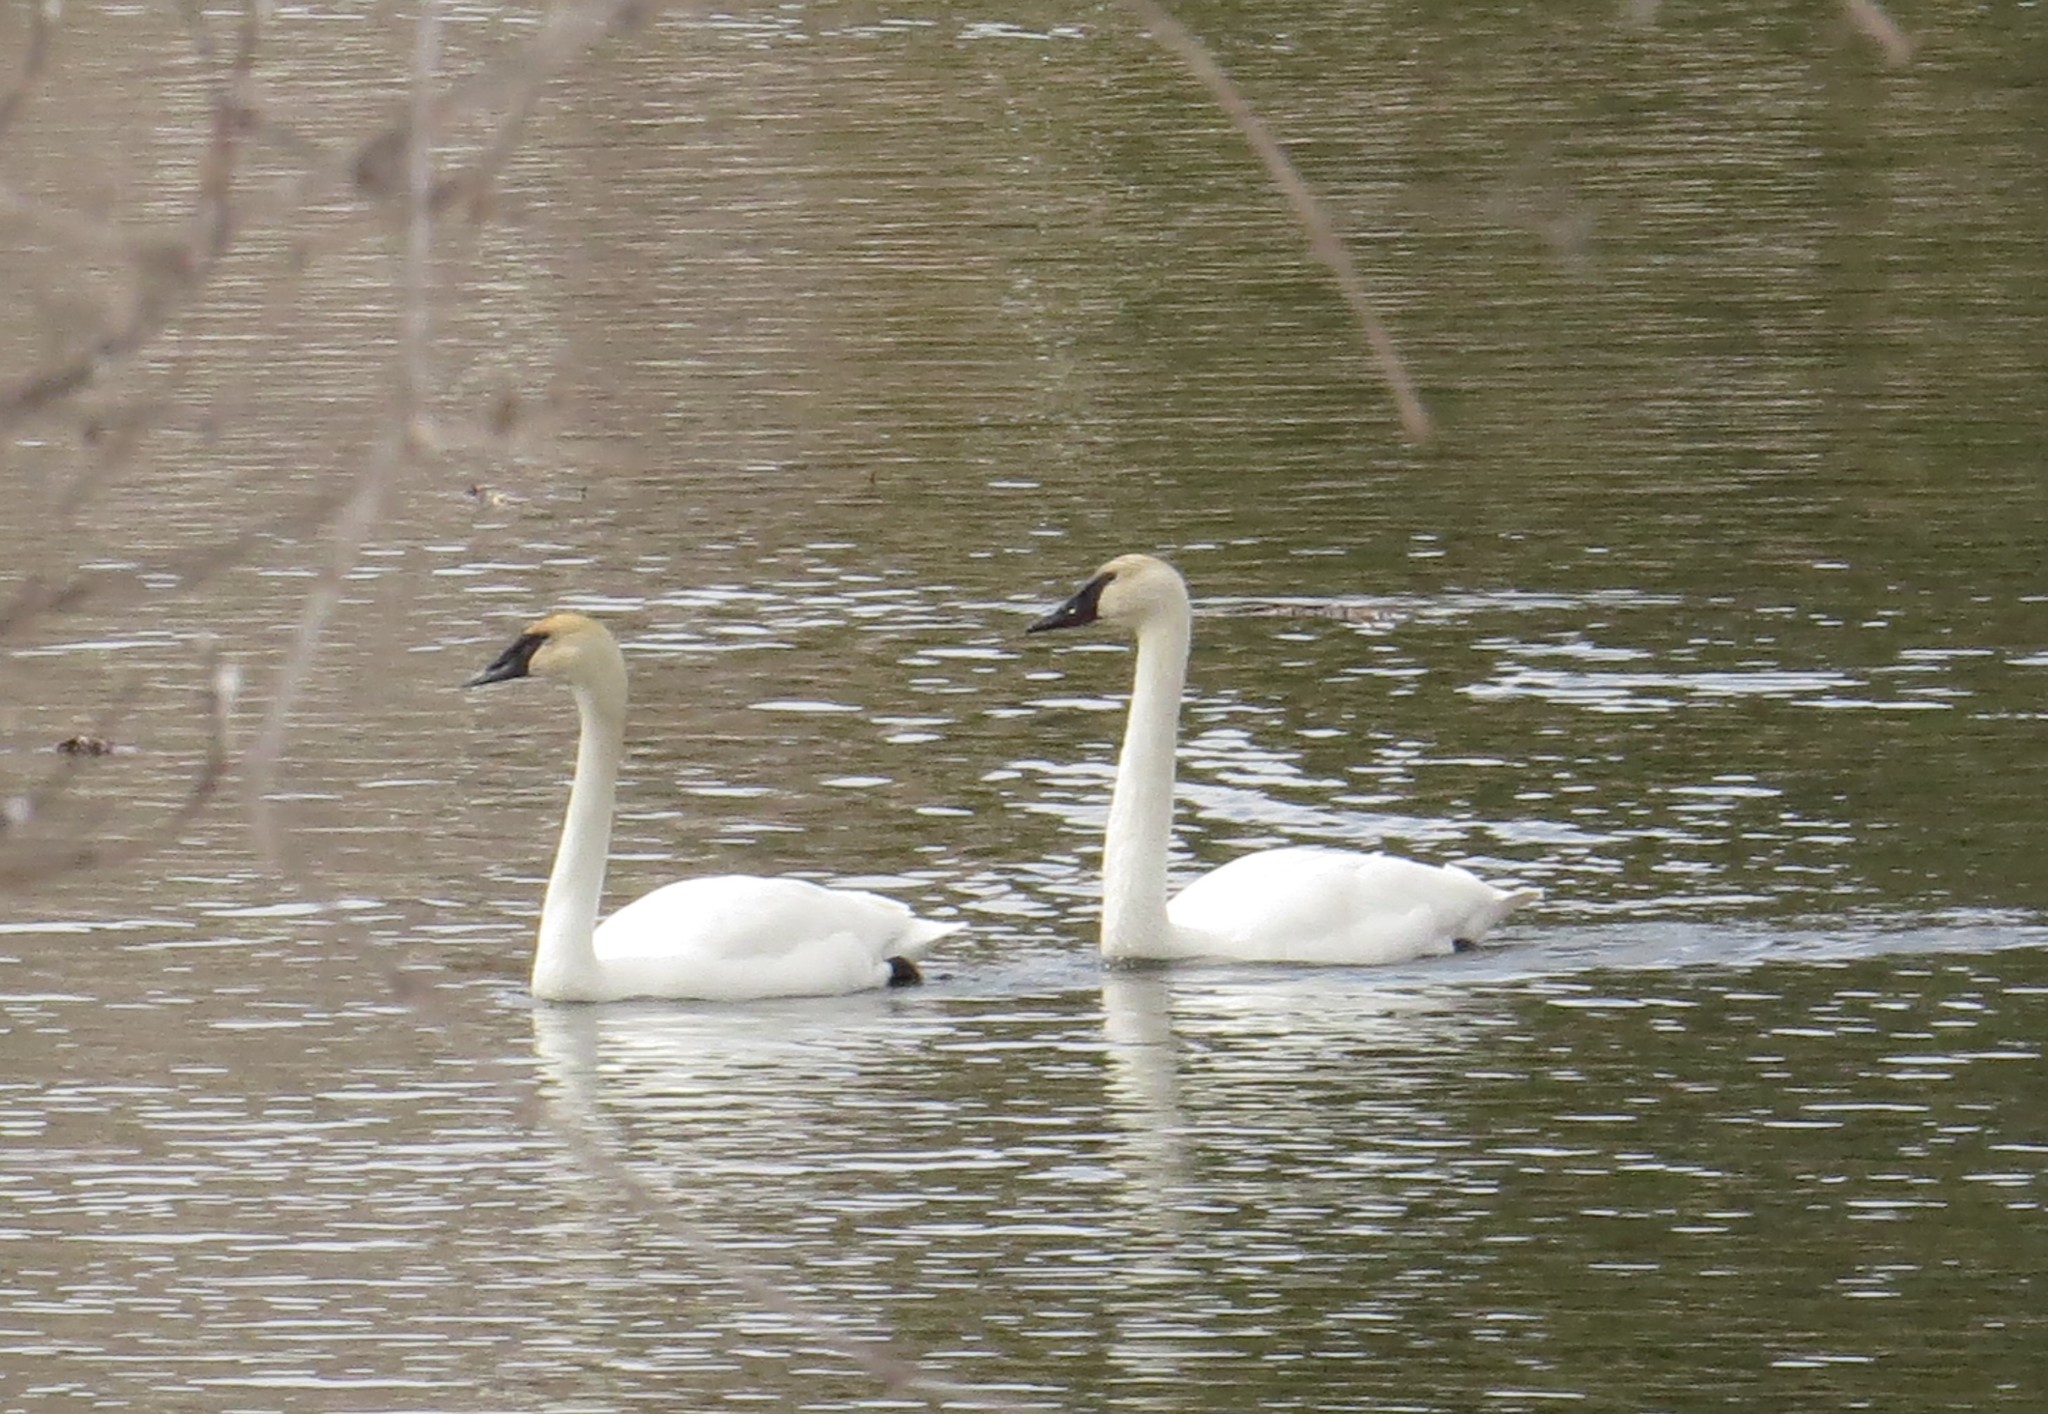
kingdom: Animalia
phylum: Chordata
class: Aves
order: Anseriformes
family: Anatidae
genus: Cygnus
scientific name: Cygnus buccinator
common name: Trumpeter swan
